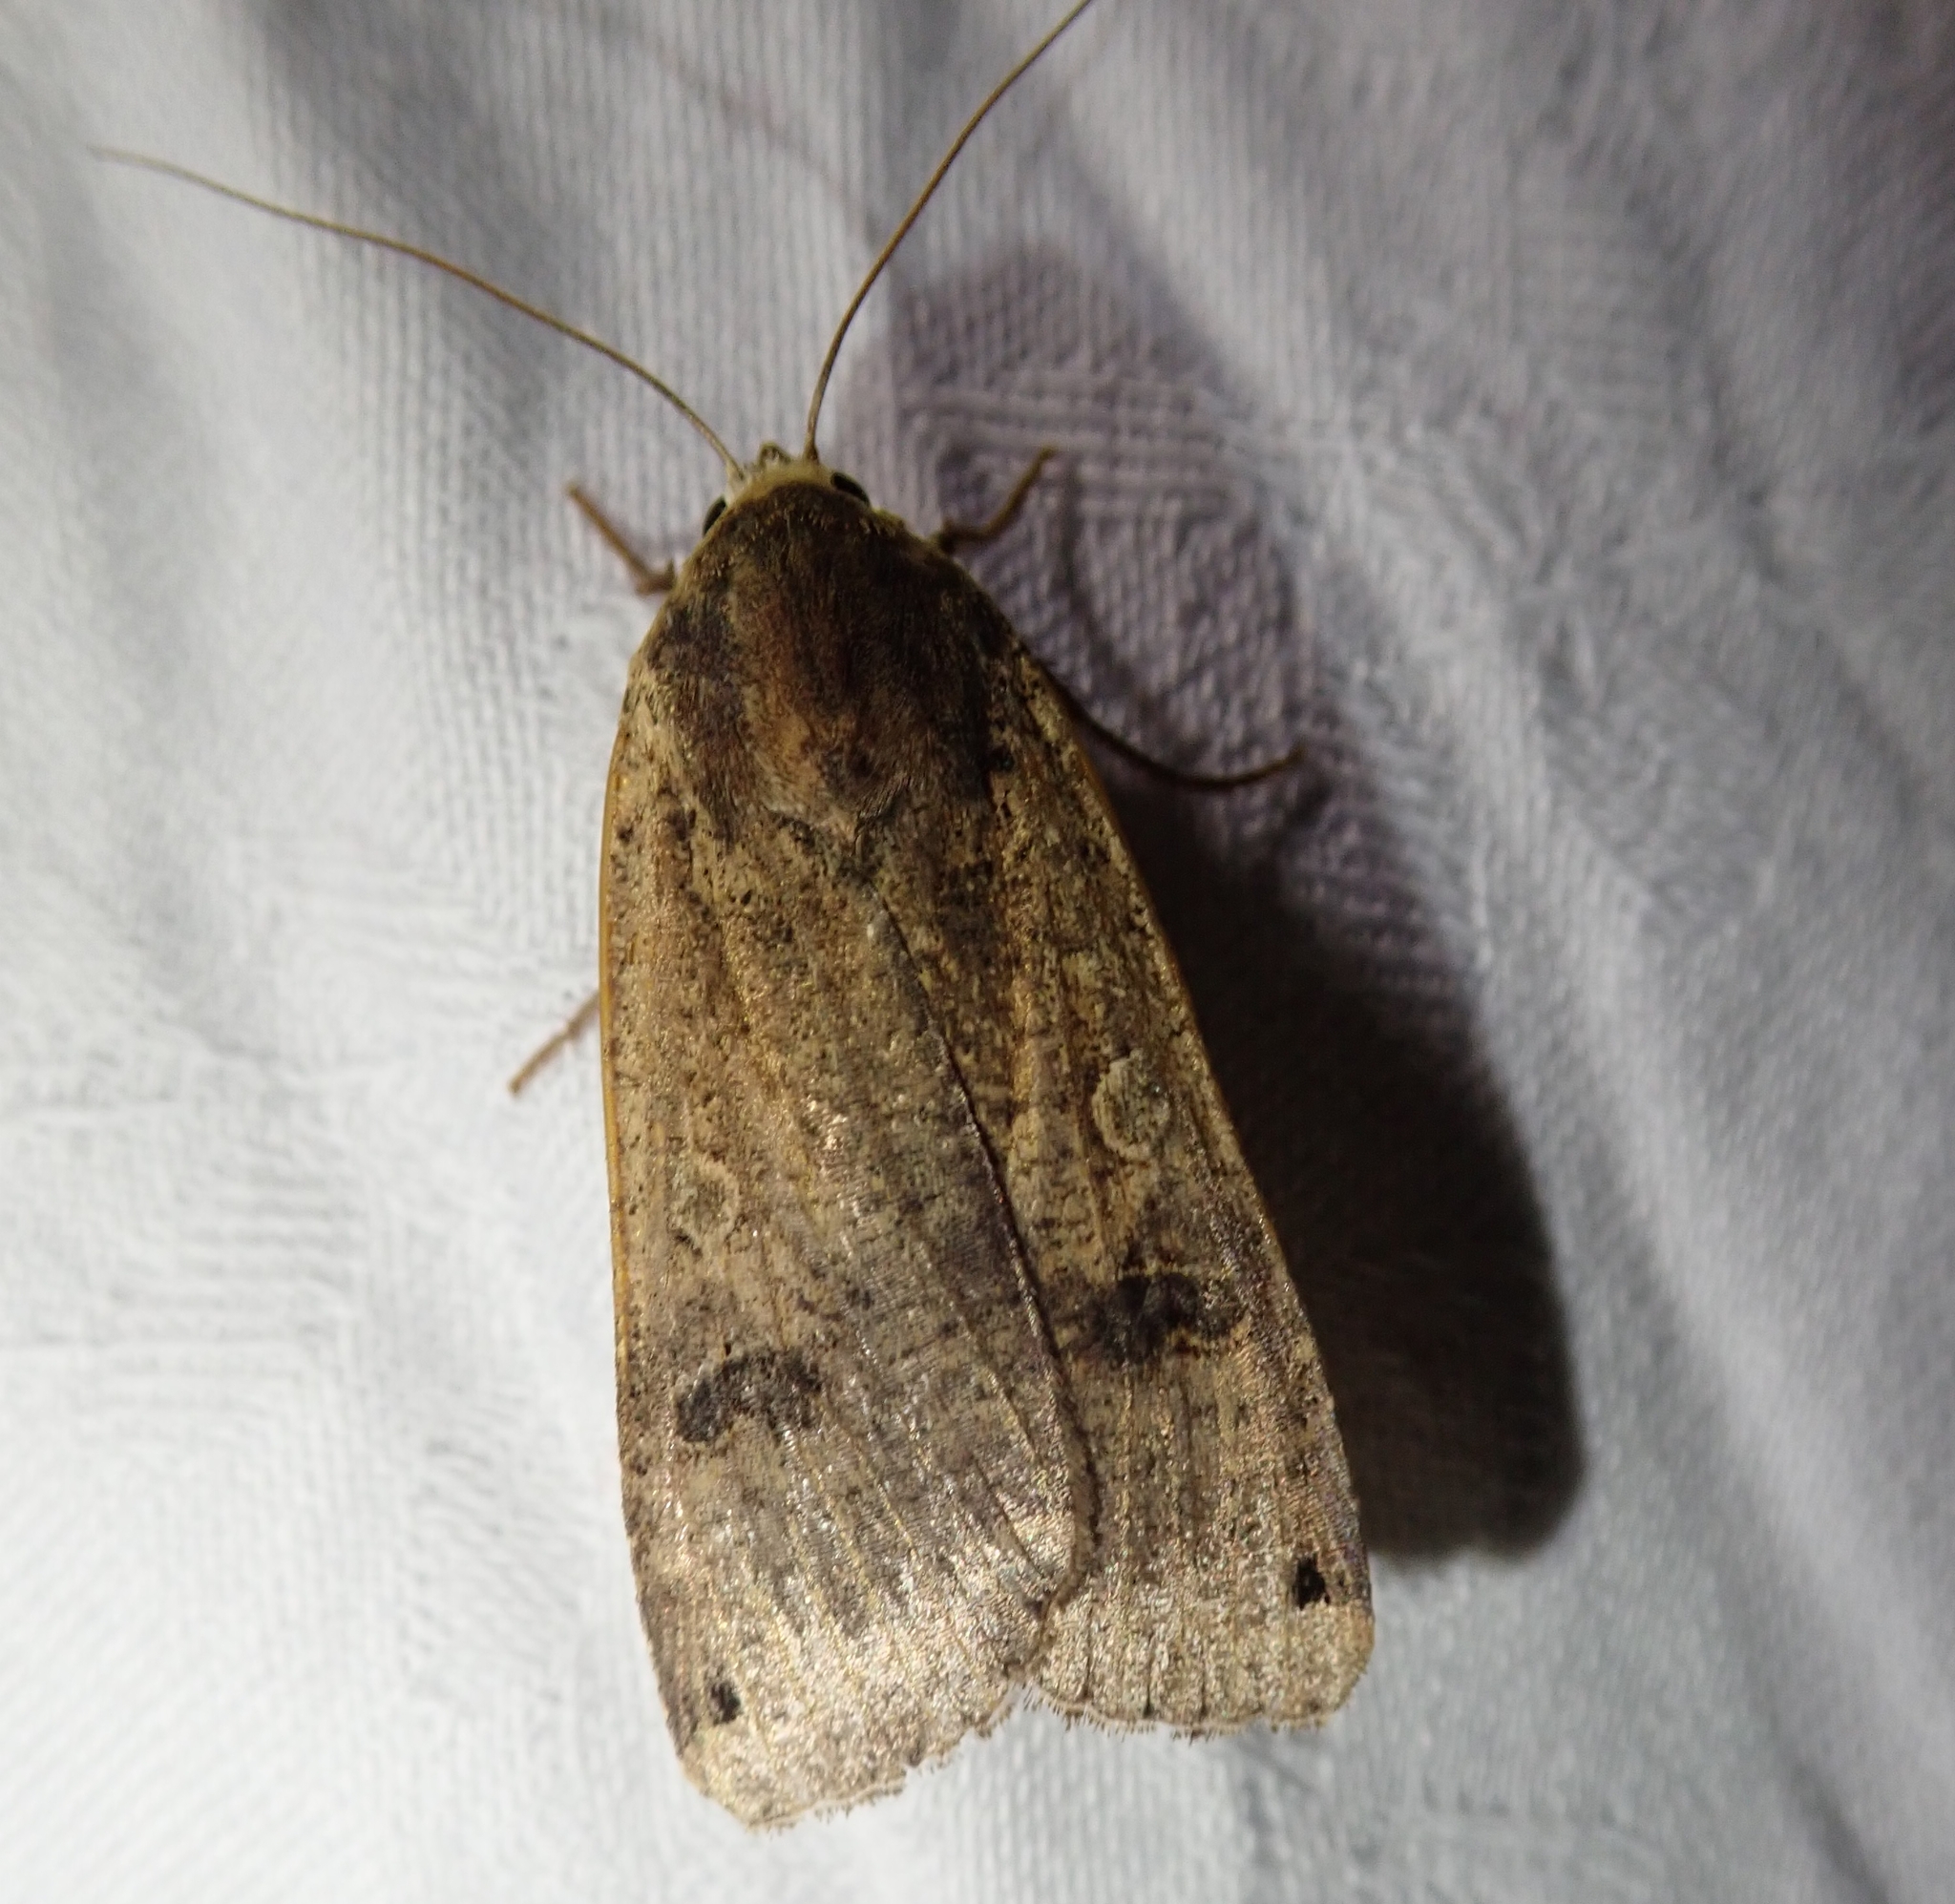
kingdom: Animalia
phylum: Arthropoda
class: Insecta
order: Lepidoptera
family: Noctuidae
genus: Noctua
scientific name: Noctua pronuba
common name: Large yellow underwing
